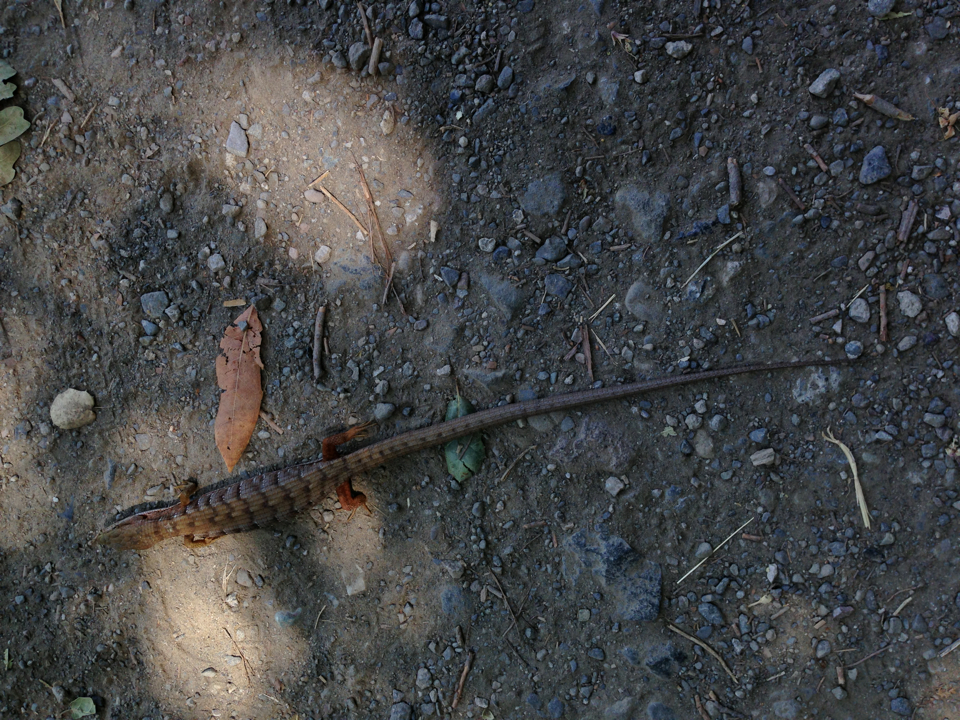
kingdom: Animalia
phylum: Chordata
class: Squamata
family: Anguidae
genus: Elgaria
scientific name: Elgaria
